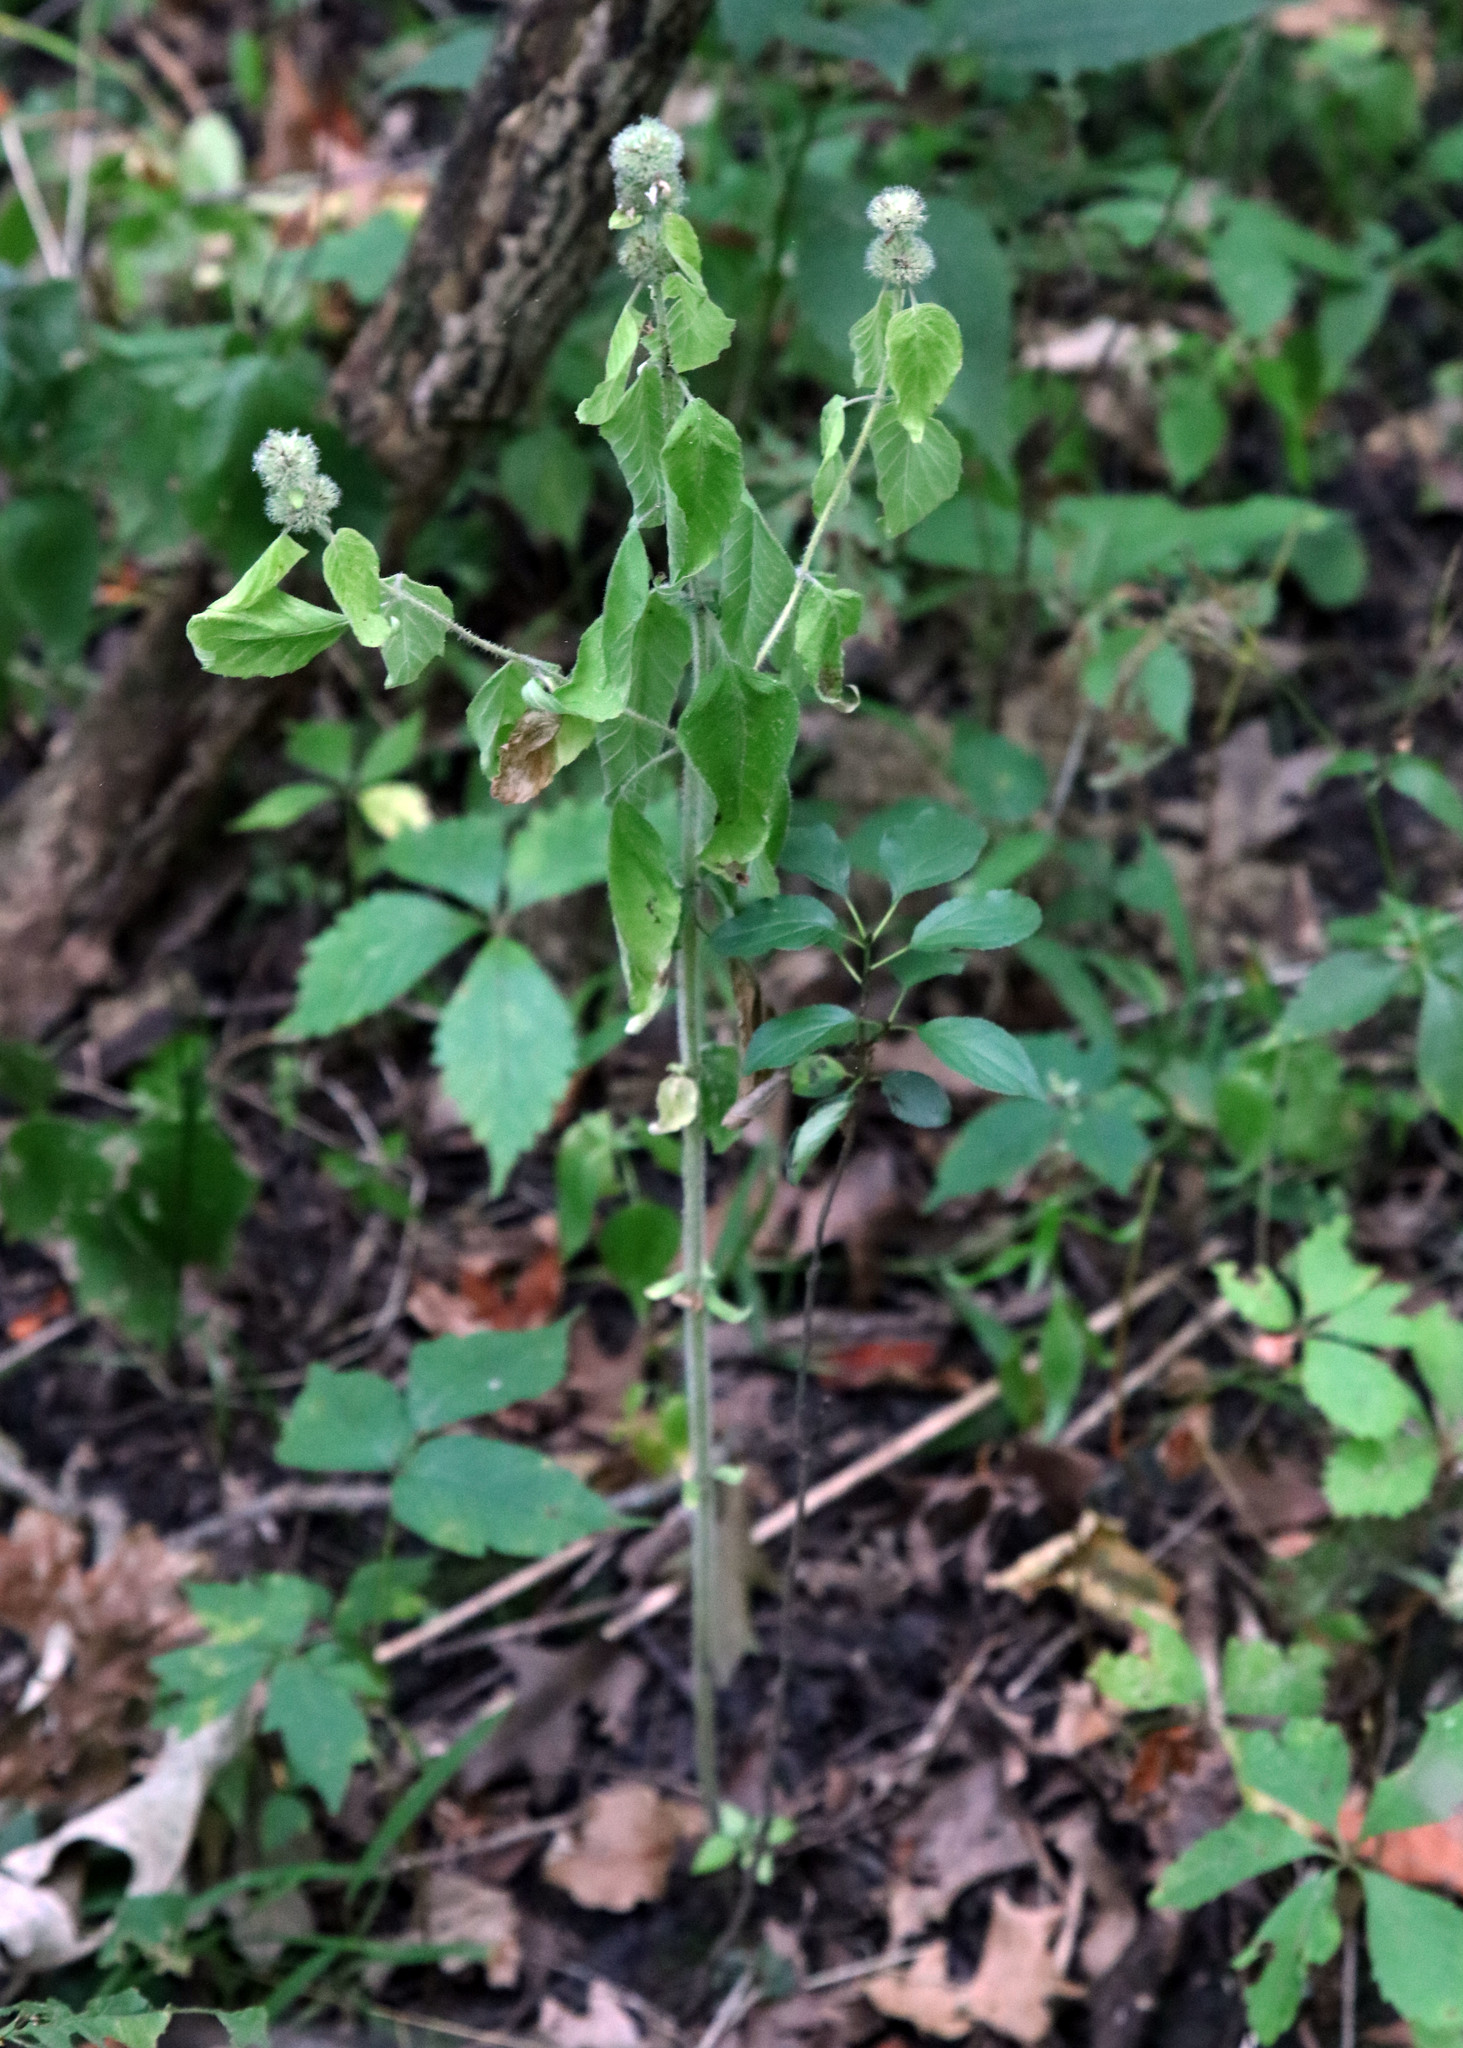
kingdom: Plantae
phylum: Tracheophyta
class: Magnoliopsida
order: Lamiales
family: Lamiaceae
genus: Blephilia
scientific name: Blephilia hirsuta
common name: Hairy blephilia
